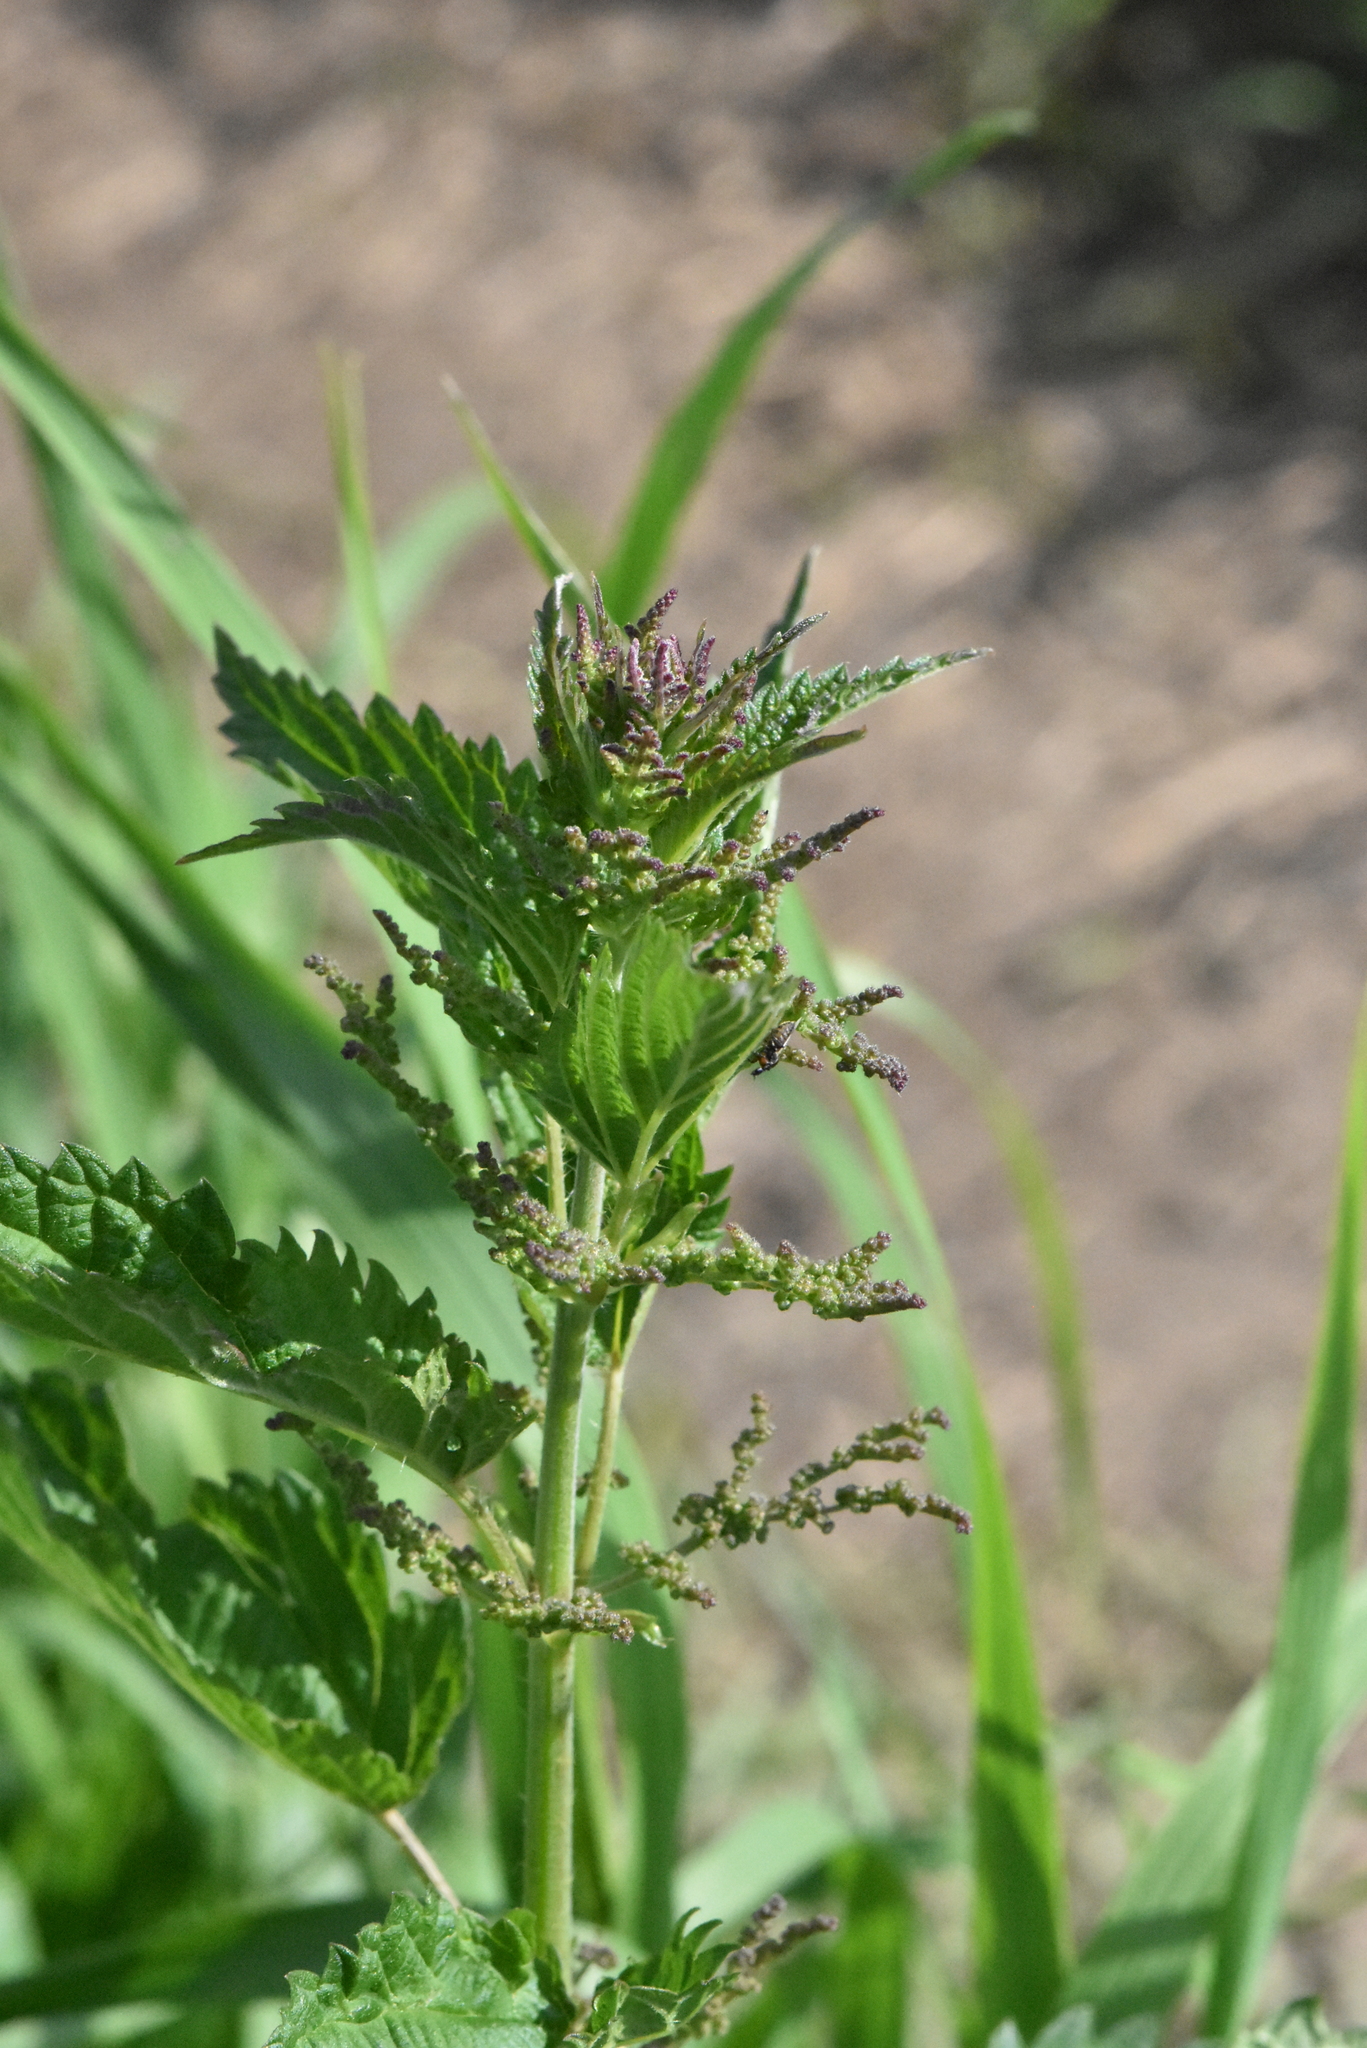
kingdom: Plantae
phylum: Tracheophyta
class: Magnoliopsida
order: Rosales
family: Urticaceae
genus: Urtica
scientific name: Urtica dioica
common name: Common nettle
